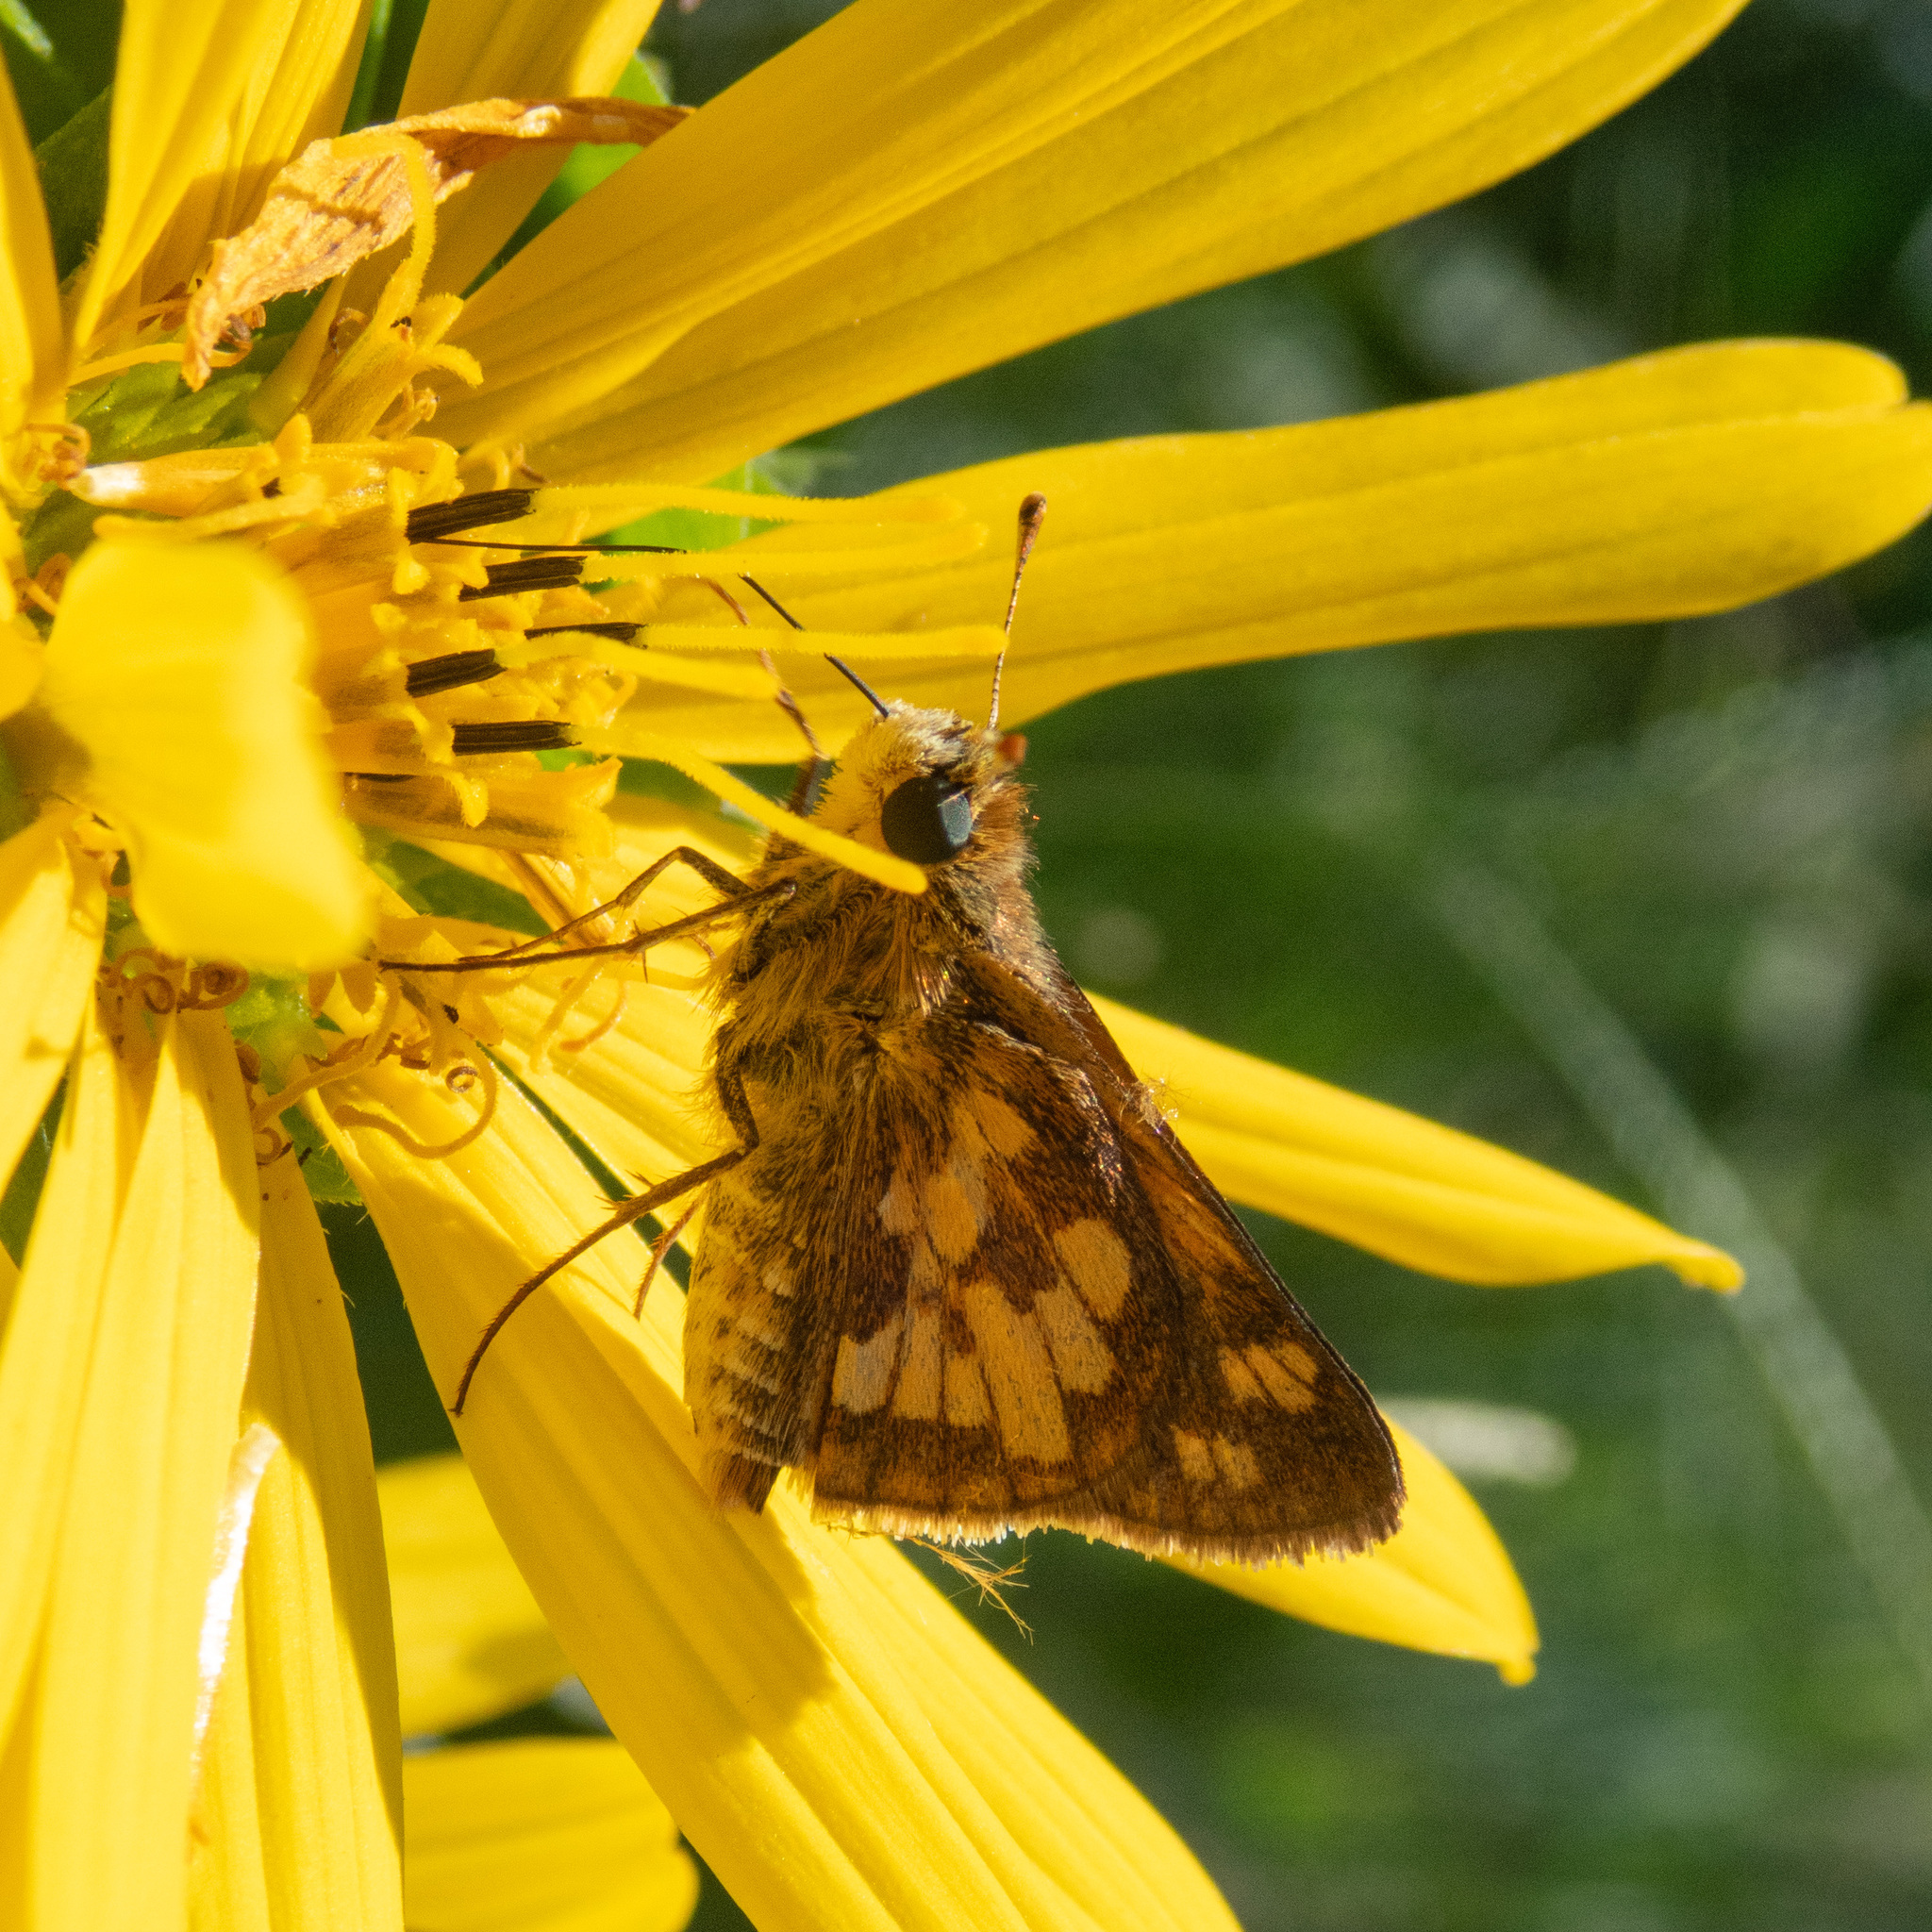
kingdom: Animalia
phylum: Arthropoda
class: Insecta
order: Lepidoptera
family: Hesperiidae
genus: Polites
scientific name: Polites coras
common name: Peck's skipper
